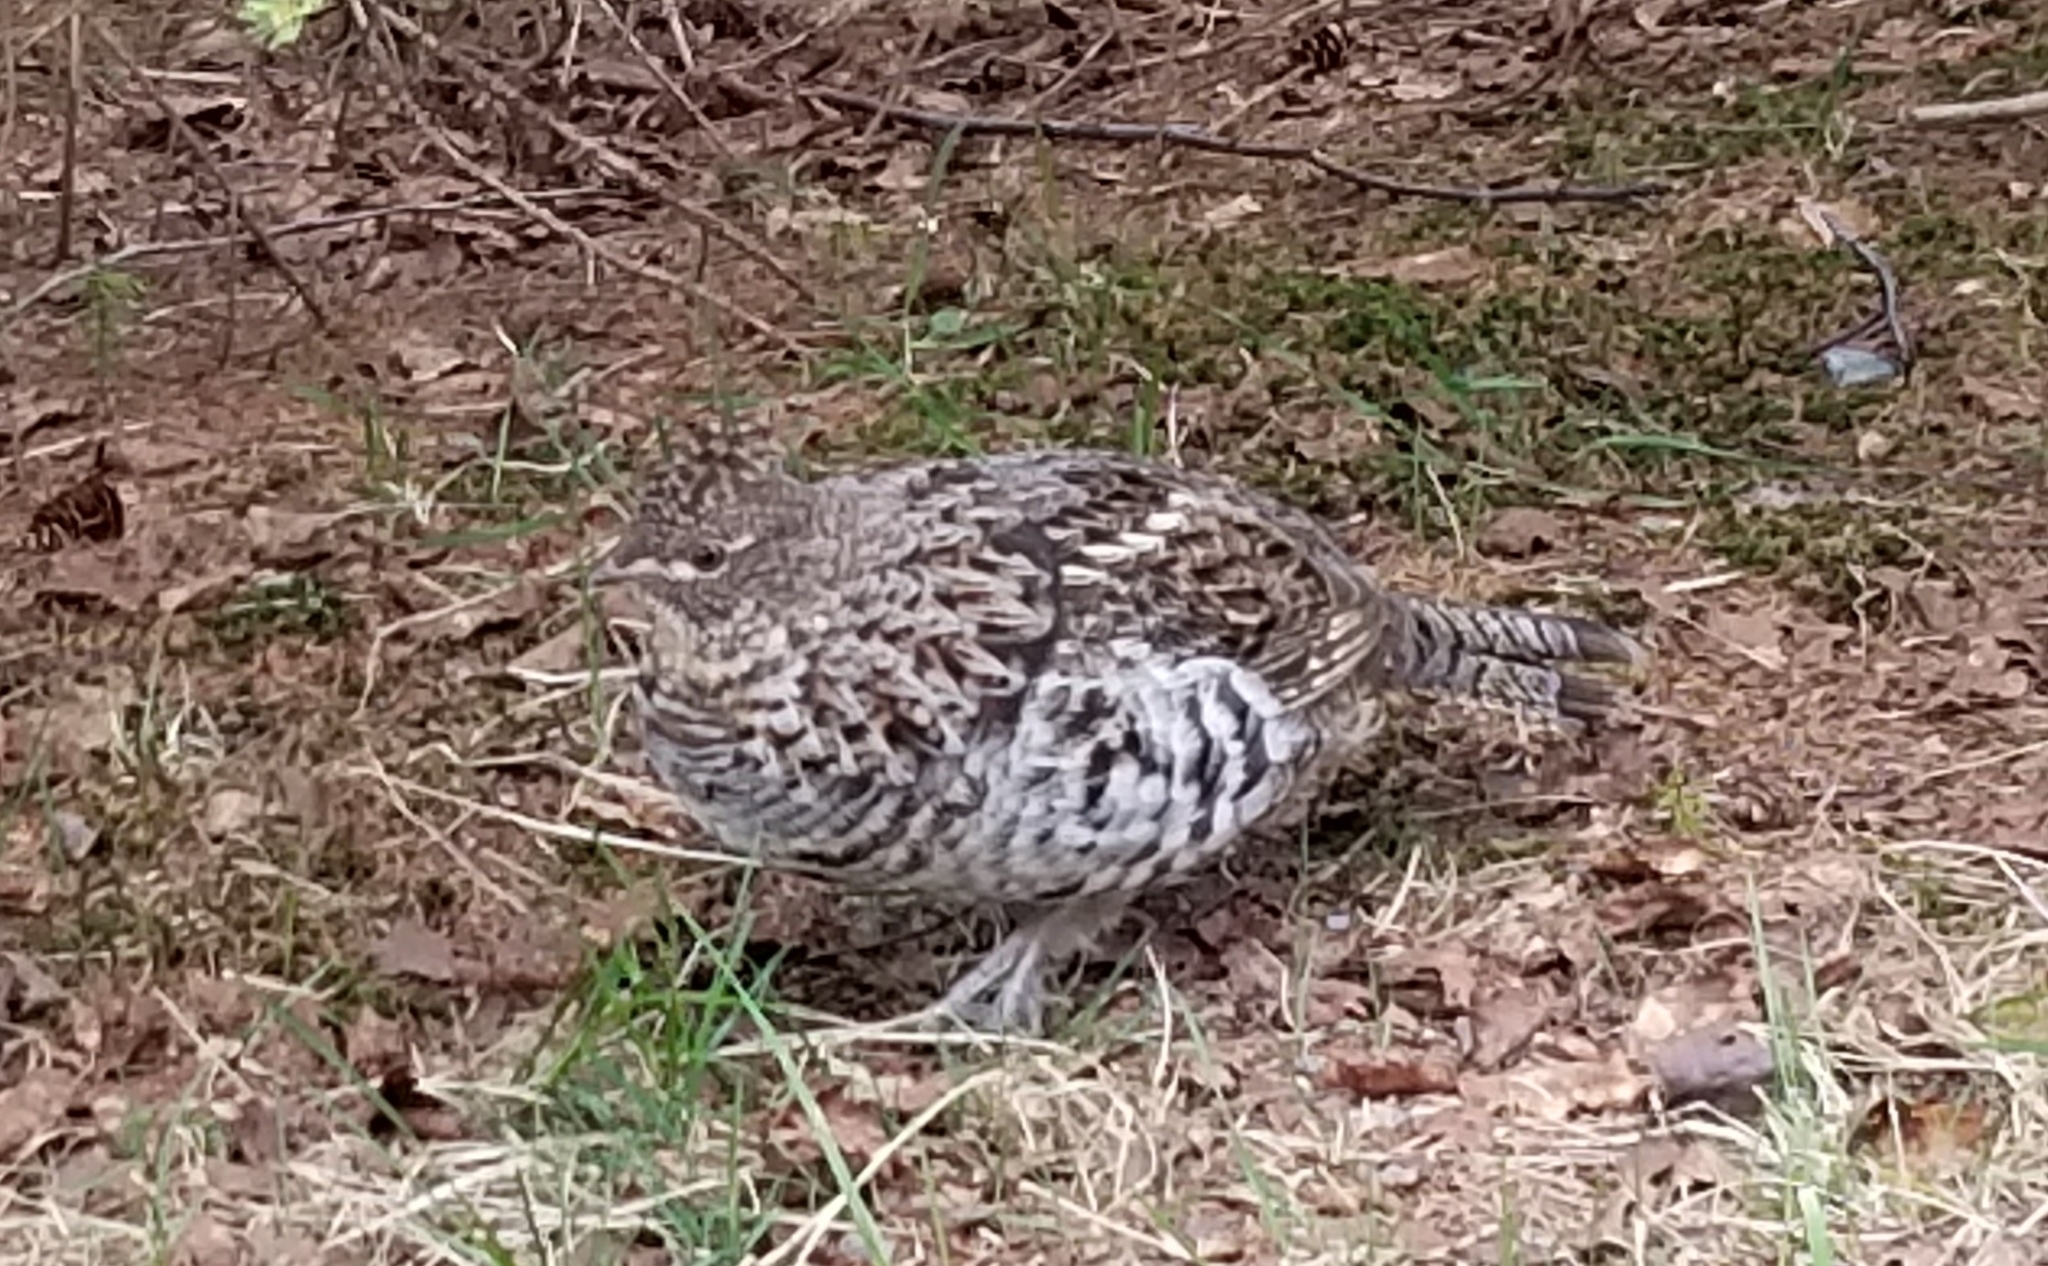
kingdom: Animalia
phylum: Chordata
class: Aves
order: Galliformes
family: Phasianidae
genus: Bonasa
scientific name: Bonasa umbellus
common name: Ruffed grouse
